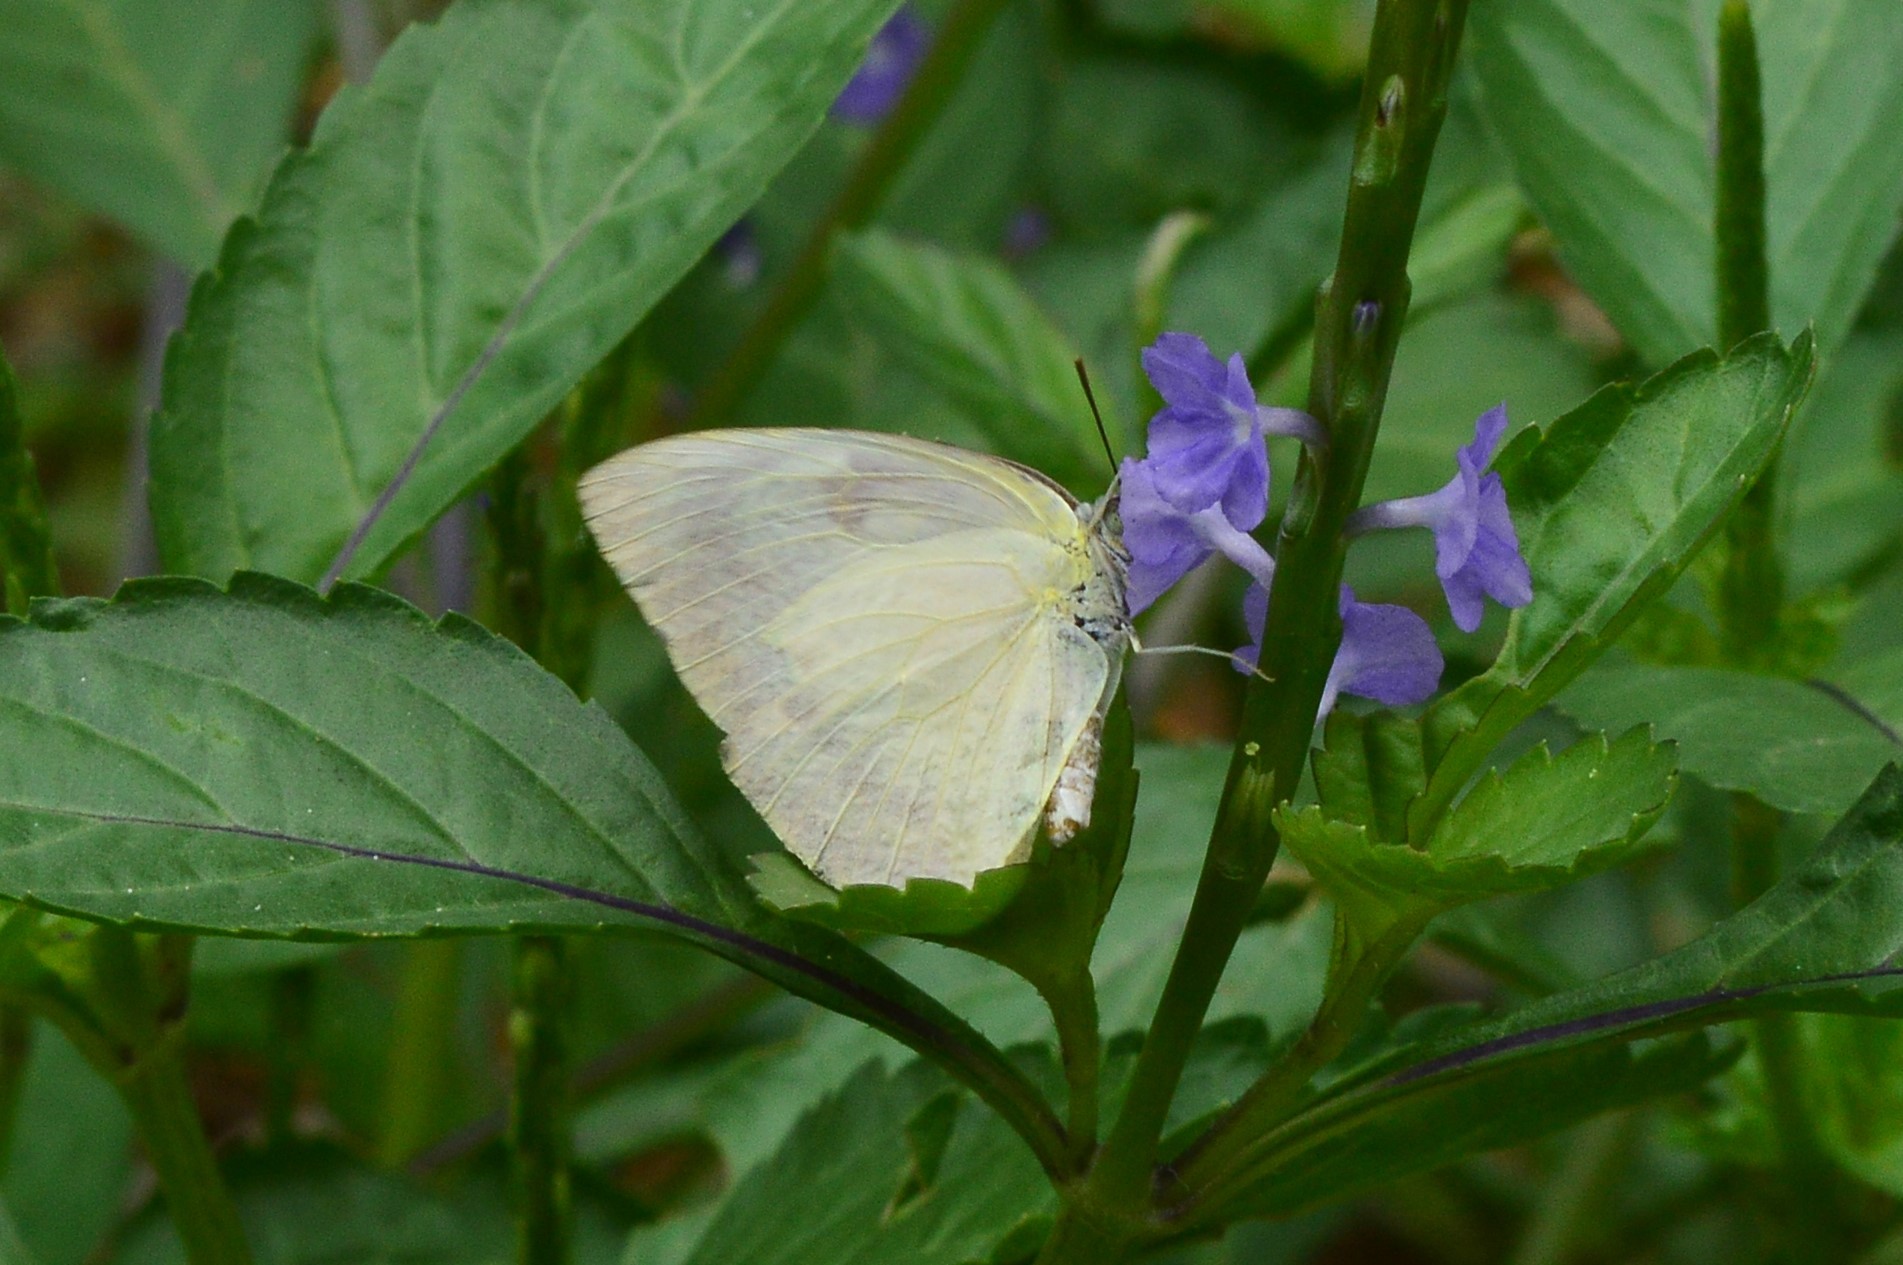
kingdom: Animalia
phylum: Arthropoda
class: Insecta
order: Lepidoptera
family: Pieridae
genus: Catopsilia
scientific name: Catopsilia pomona
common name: Common emigrant
